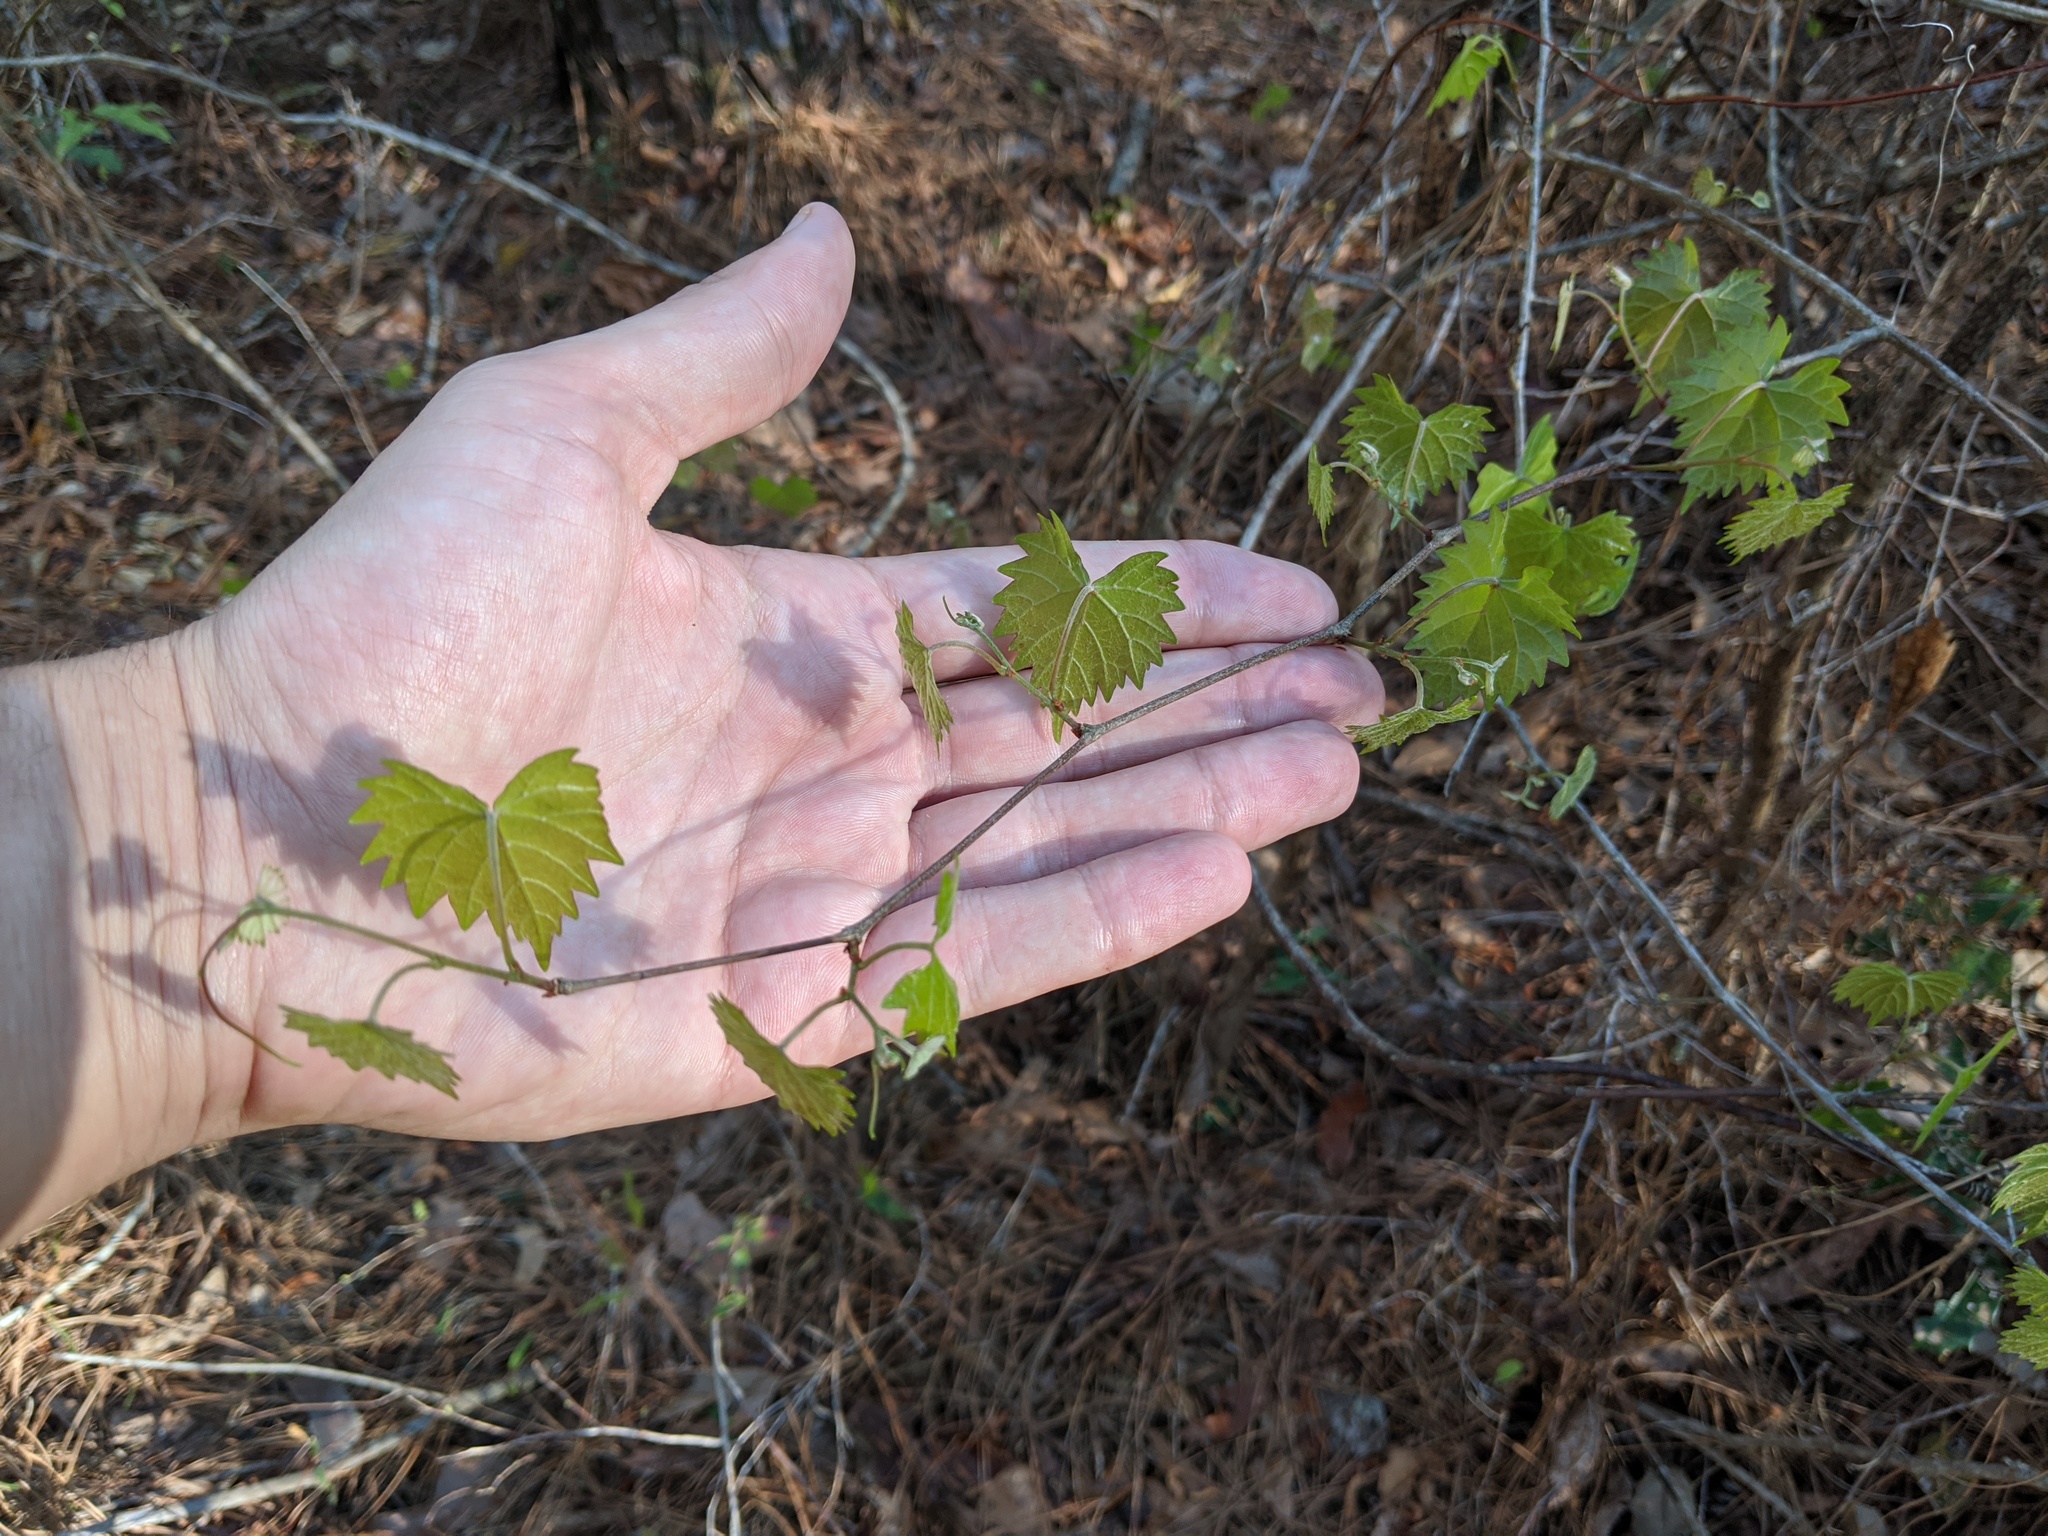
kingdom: Plantae
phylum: Tracheophyta
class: Magnoliopsida
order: Vitales
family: Vitaceae
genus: Vitis
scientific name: Vitis rotundifolia
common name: Muscadine grape
